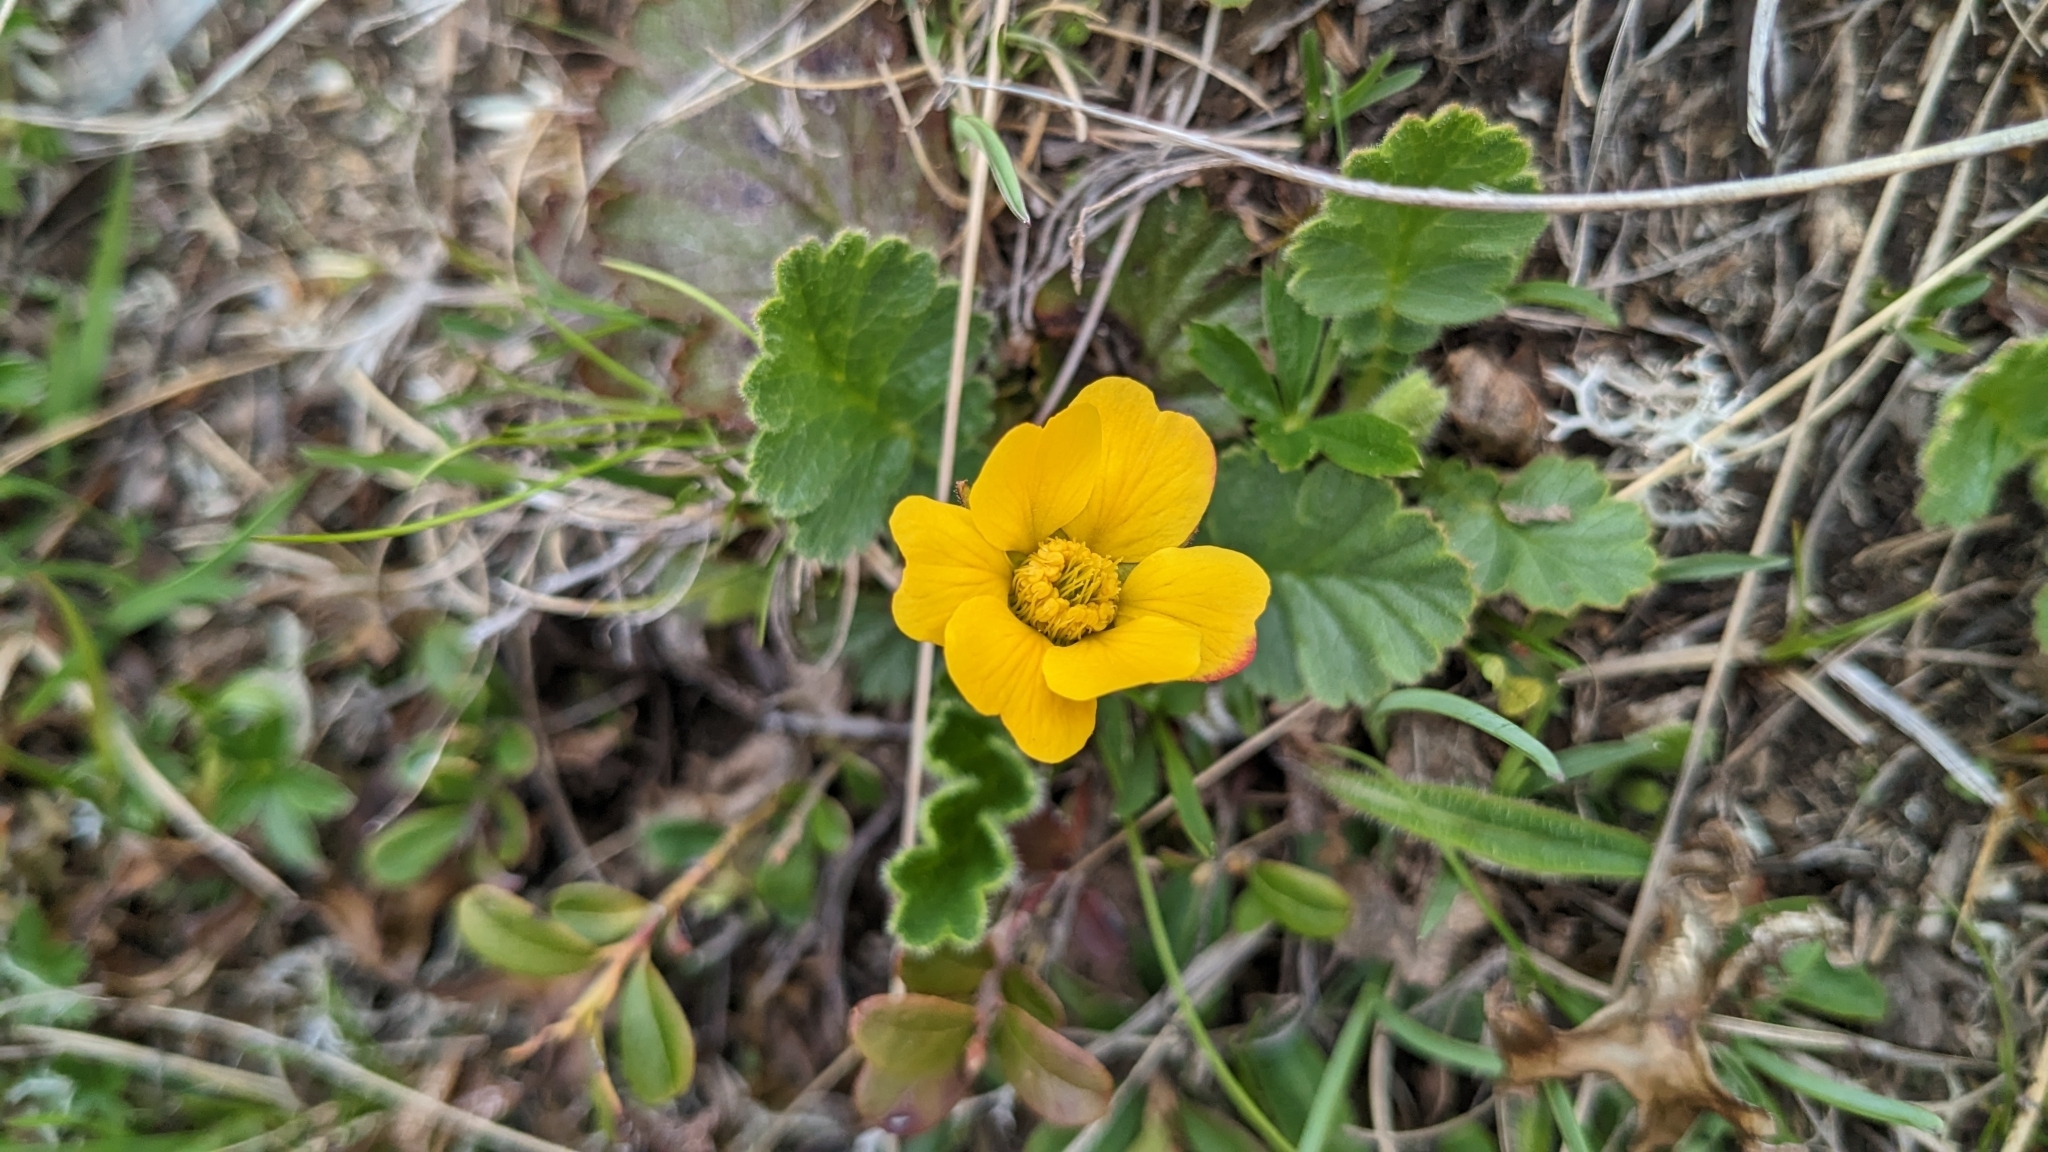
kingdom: Plantae
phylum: Tracheophyta
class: Magnoliopsida
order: Rosales
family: Rosaceae
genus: Geum
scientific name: Geum montanum
